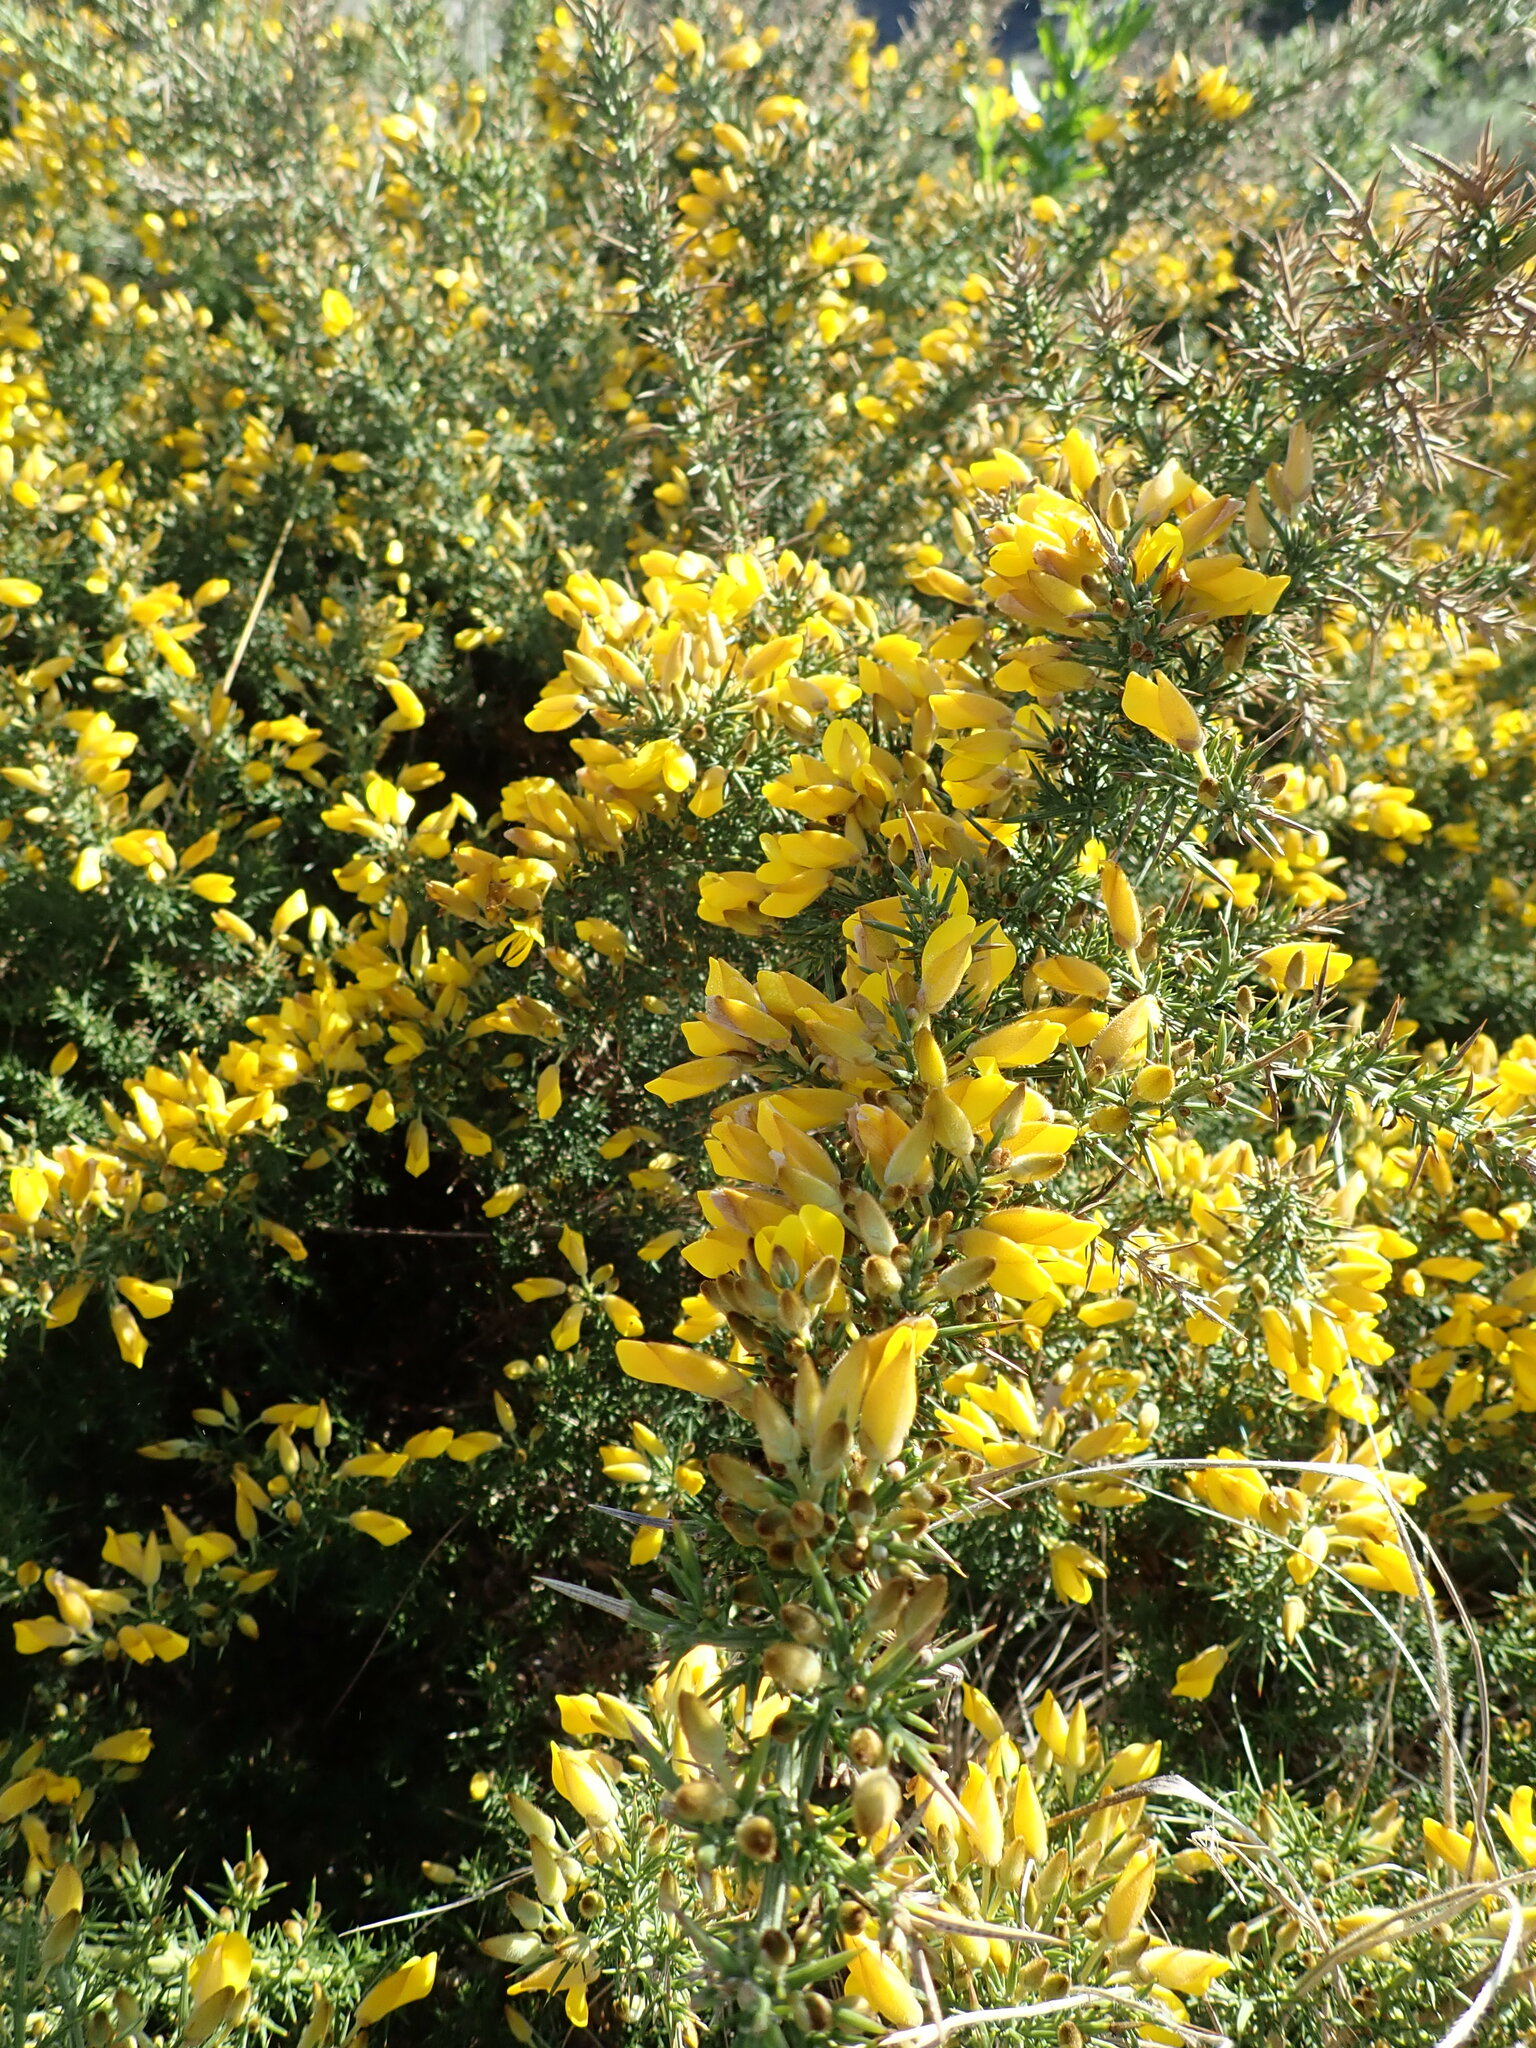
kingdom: Plantae
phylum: Tracheophyta
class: Magnoliopsida
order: Fabales
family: Fabaceae
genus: Ulex
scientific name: Ulex europaeus
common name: Common gorse
